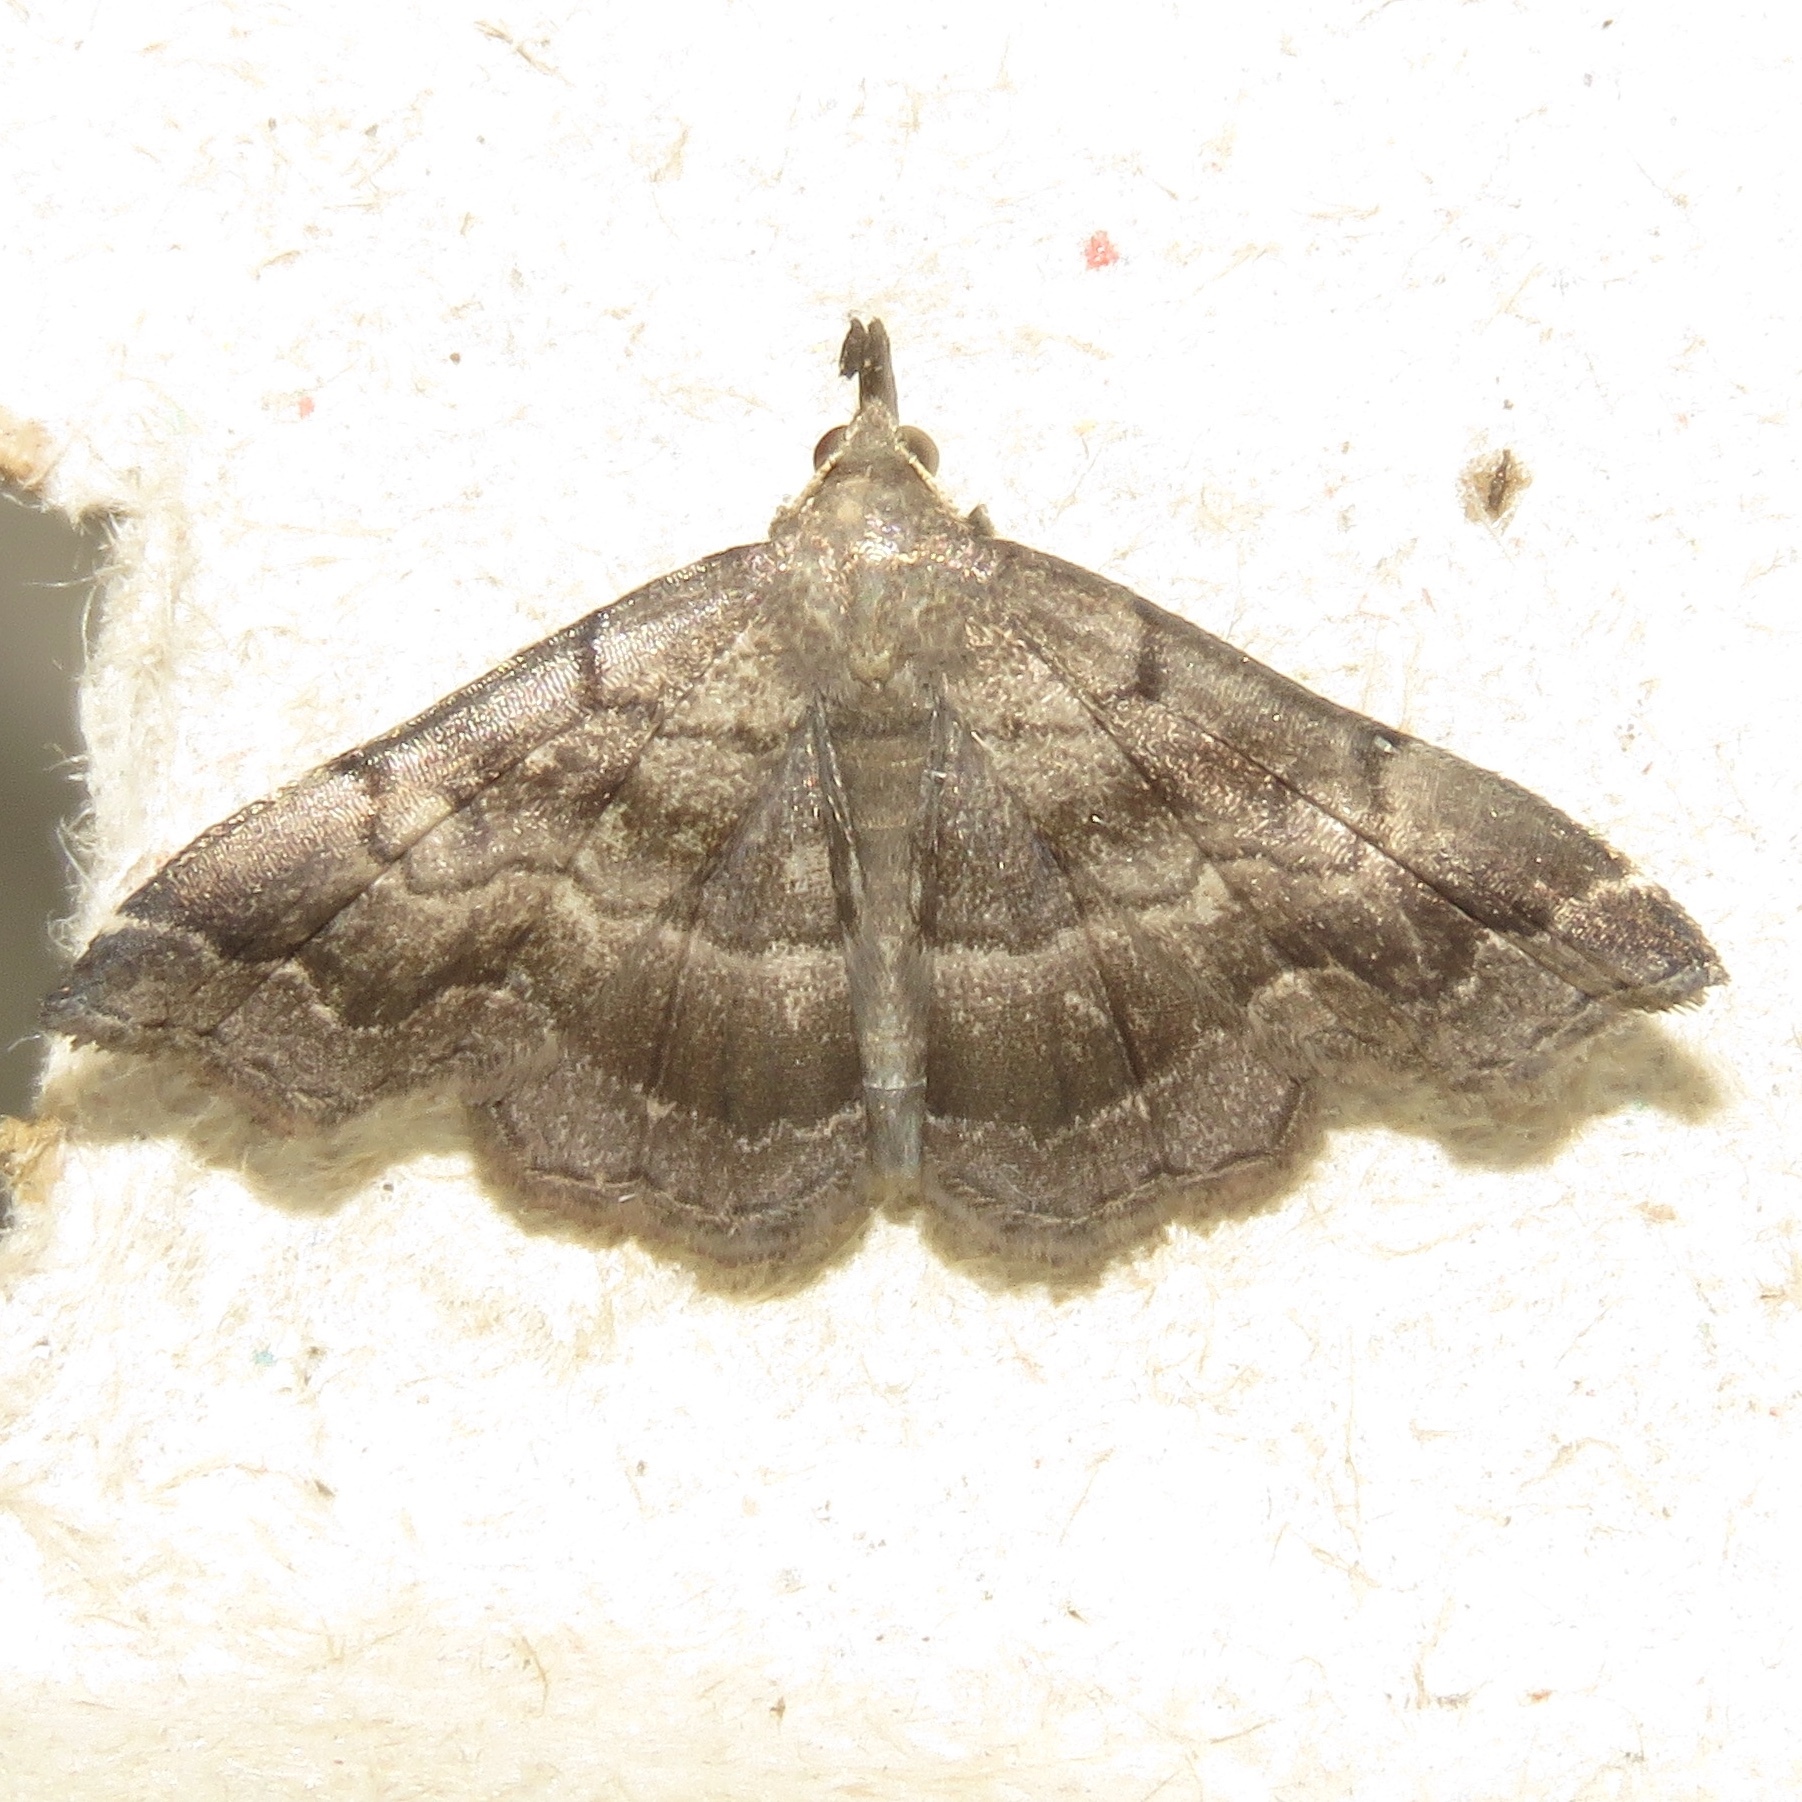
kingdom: Animalia
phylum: Arthropoda
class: Insecta
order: Lepidoptera
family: Erebidae
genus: Phalaenostola
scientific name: Phalaenostola larentioides
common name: Black-banded owlet
